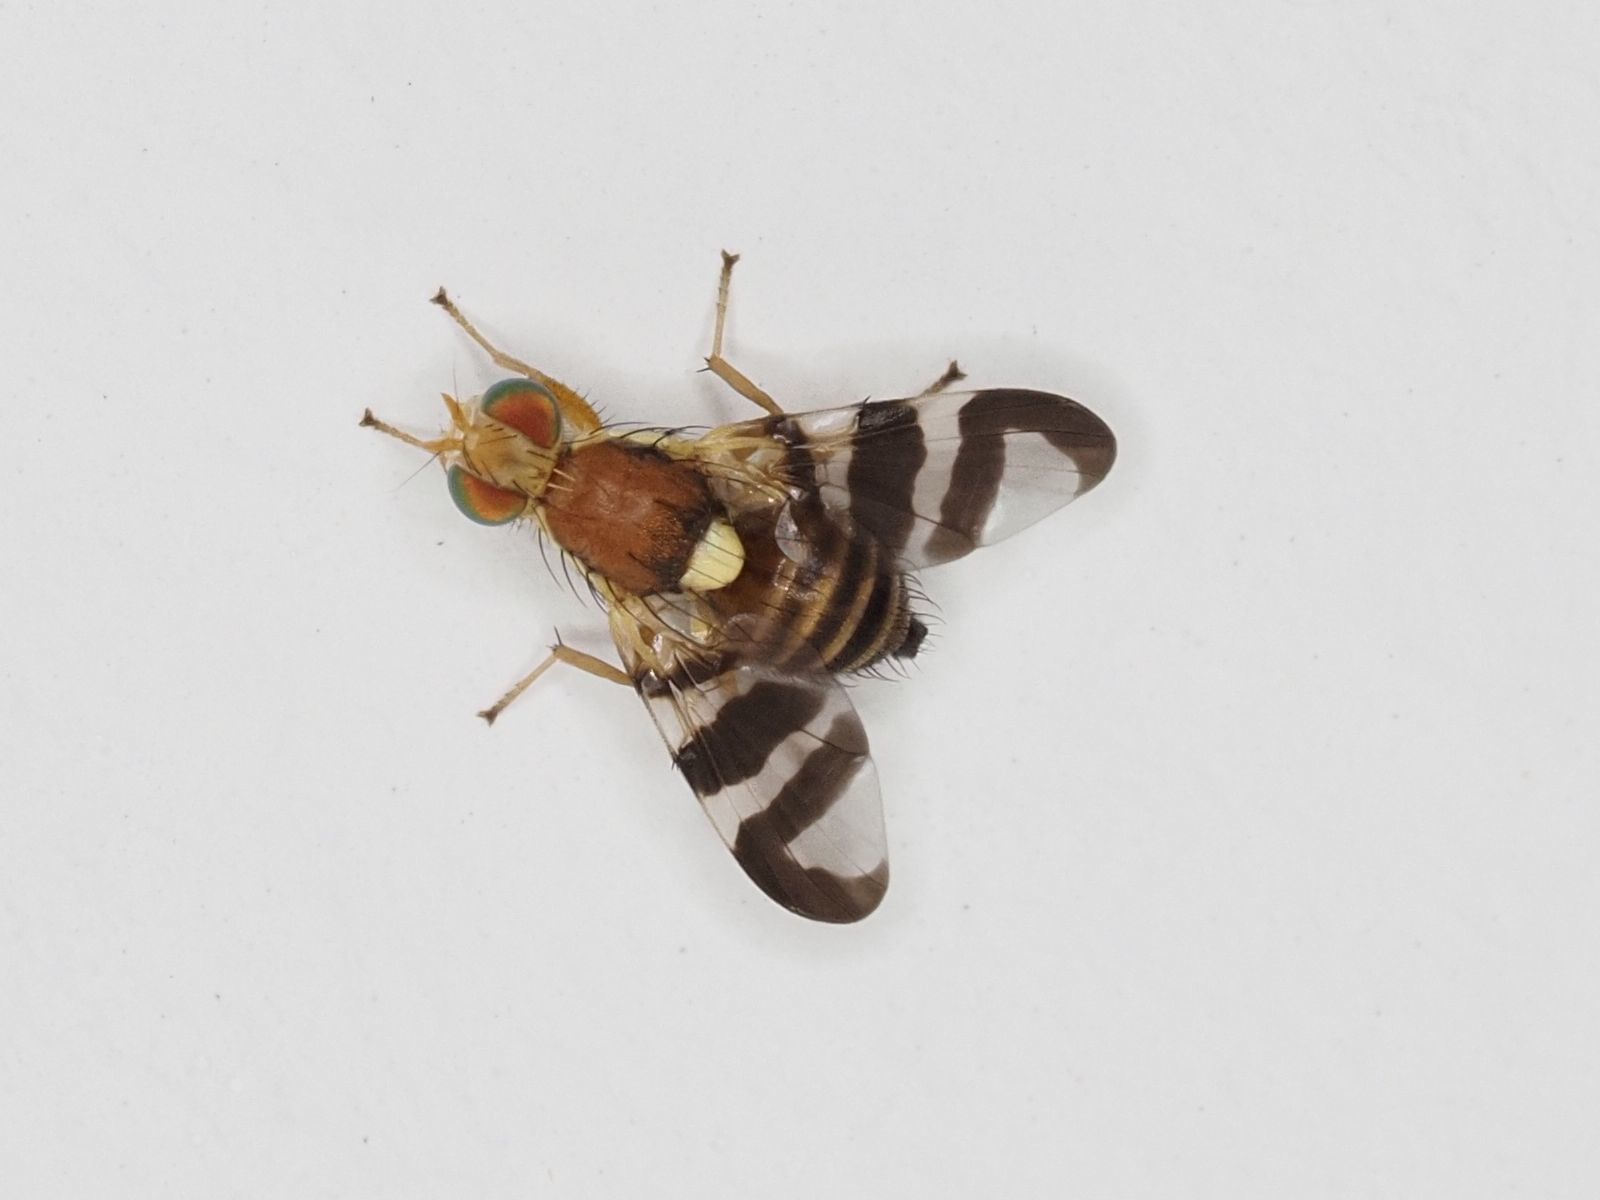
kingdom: Animalia
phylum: Arthropoda
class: Insecta
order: Diptera
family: Tephritidae
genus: Rhagoletis
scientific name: Rhagoletis completa
